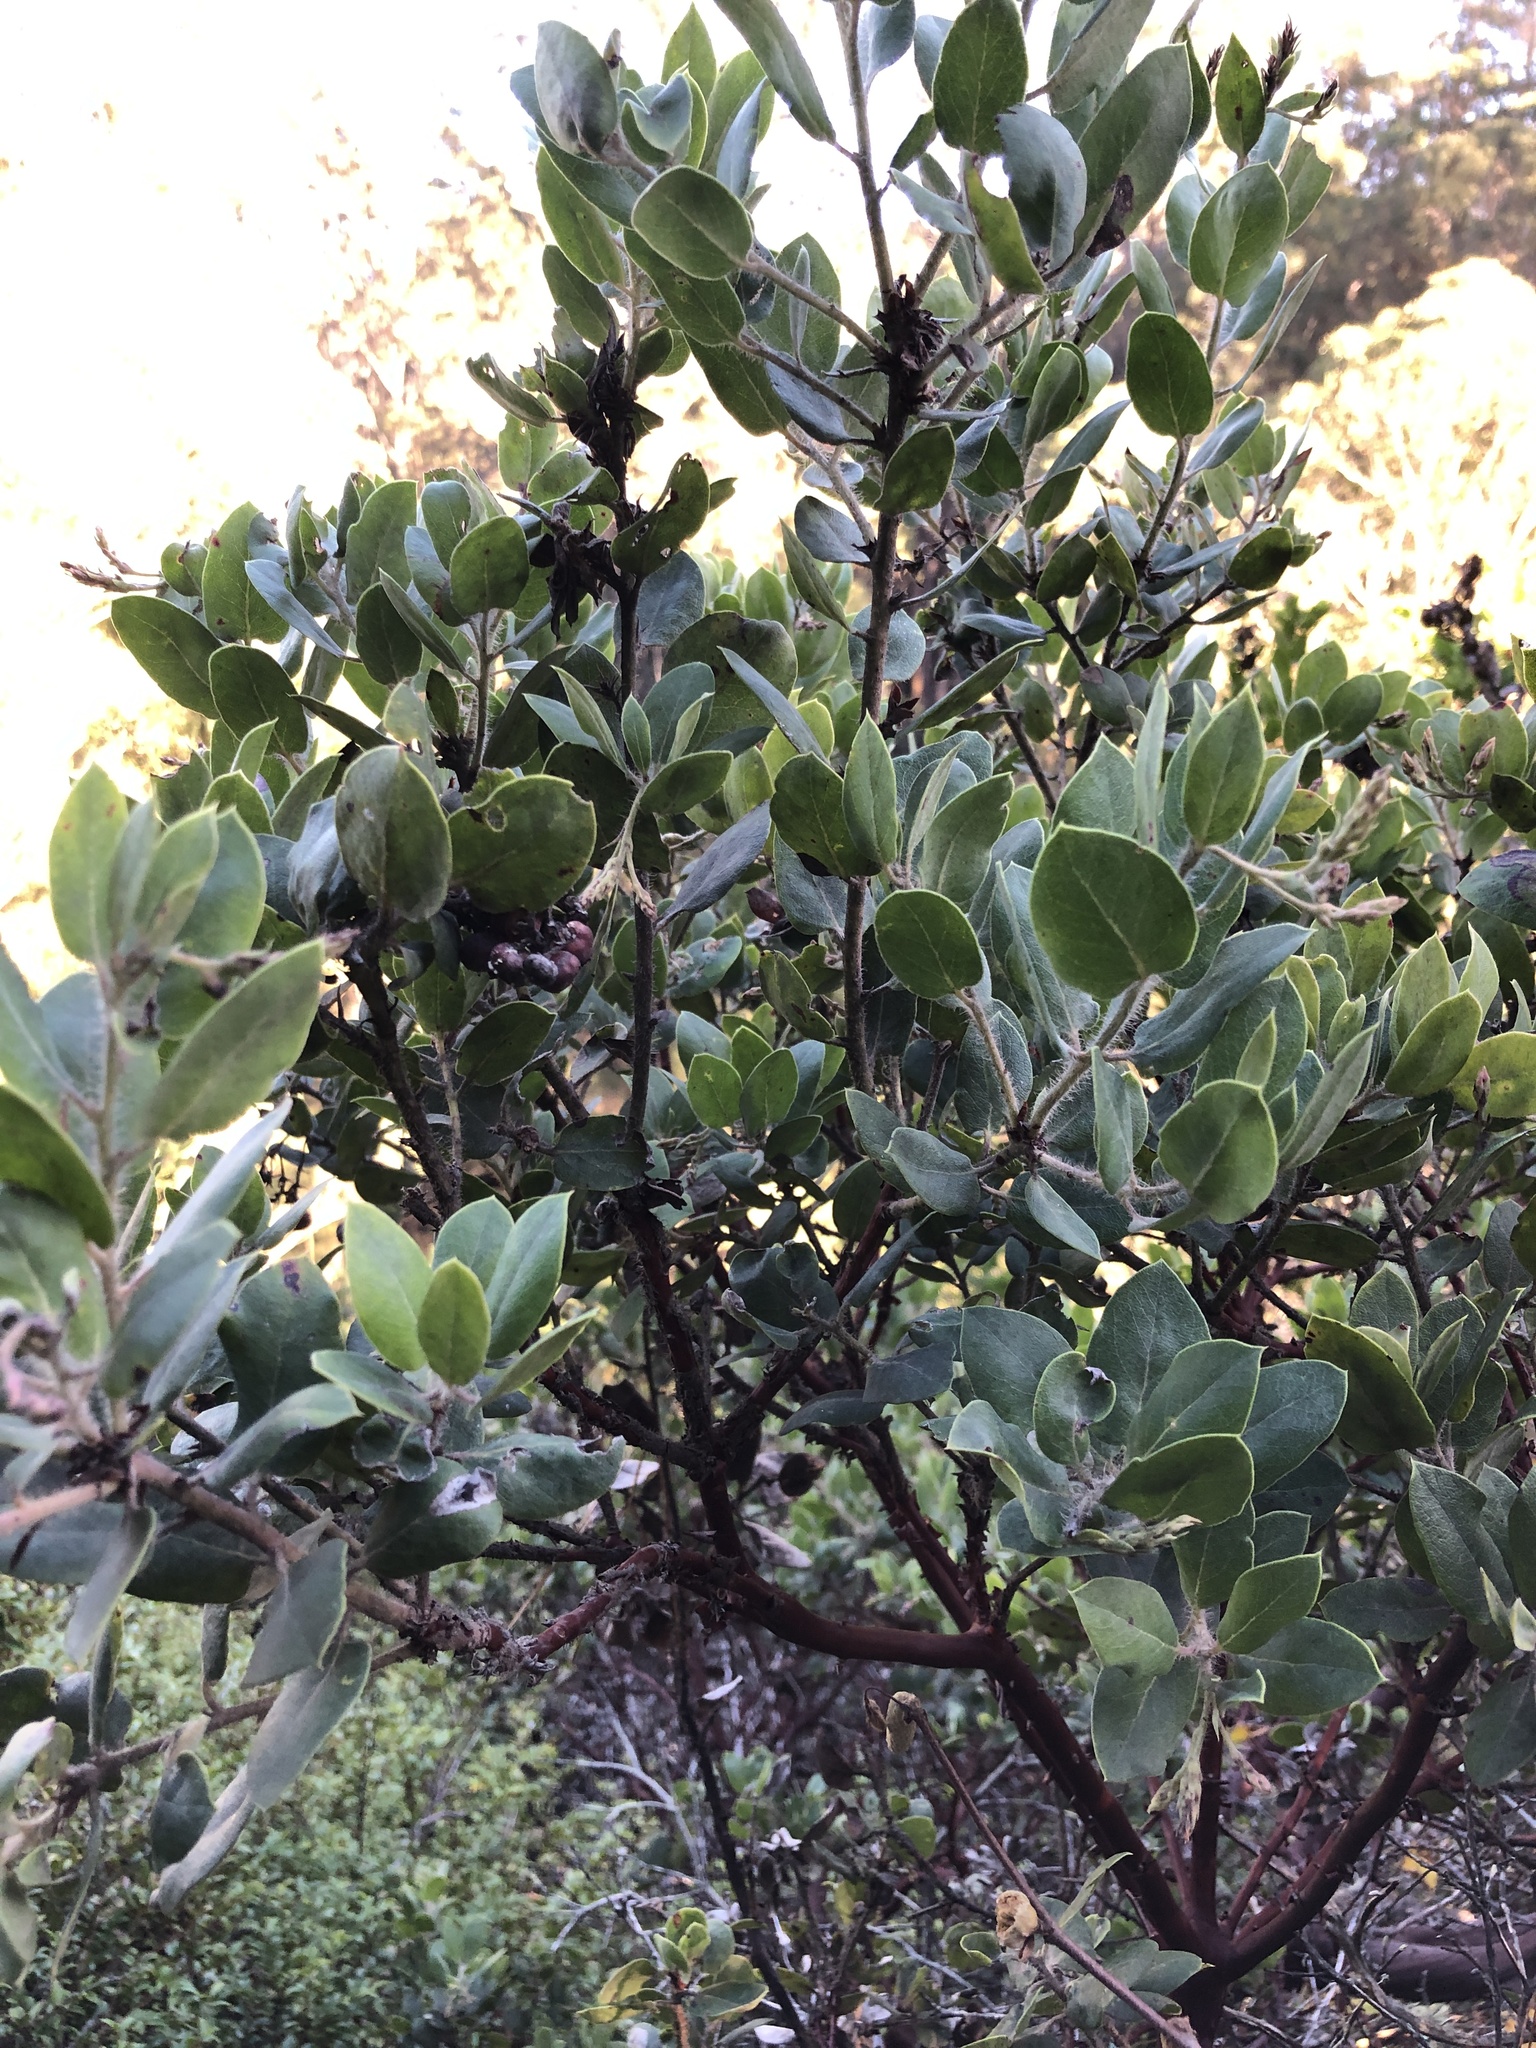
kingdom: Plantae
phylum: Tracheophyta
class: Magnoliopsida
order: Ericales
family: Ericaceae
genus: Arctostaphylos
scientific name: Arctostaphylos crustacea
